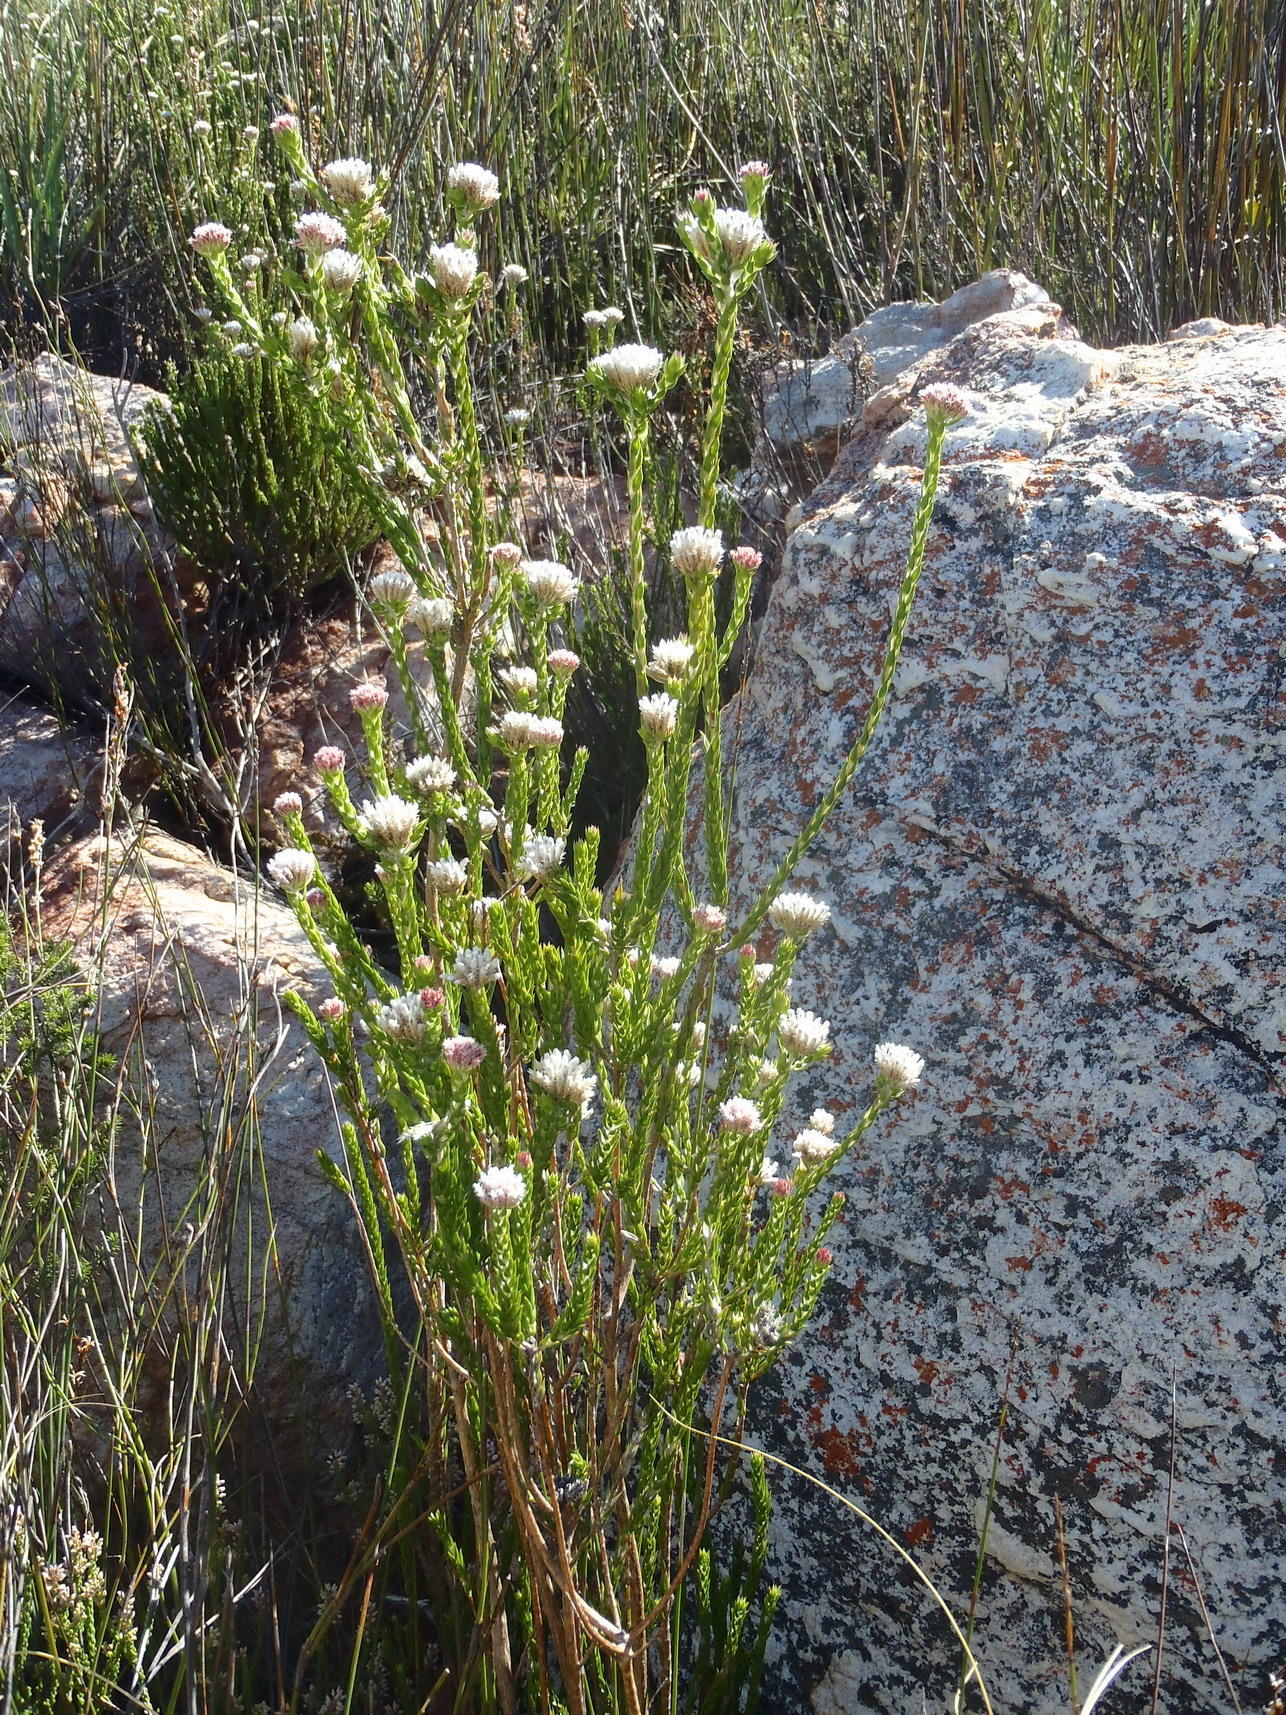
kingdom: Plantae
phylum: Tracheophyta
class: Magnoliopsida
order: Asterales
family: Asteraceae
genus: Metalasia
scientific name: Metalasia pulcherrima
